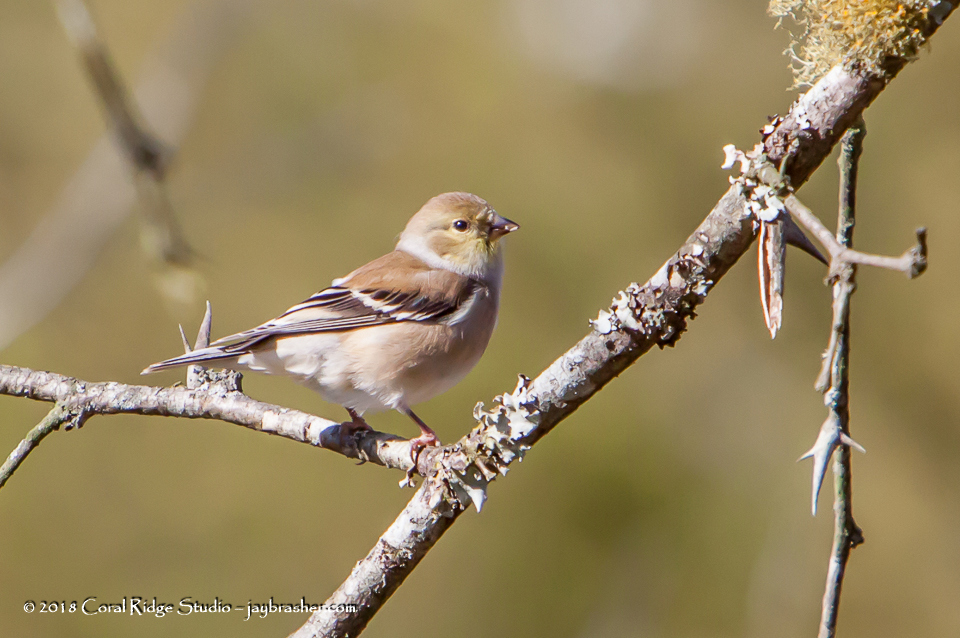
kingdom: Animalia
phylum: Chordata
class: Aves
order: Passeriformes
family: Fringillidae
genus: Spinus
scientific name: Spinus tristis
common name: American goldfinch
